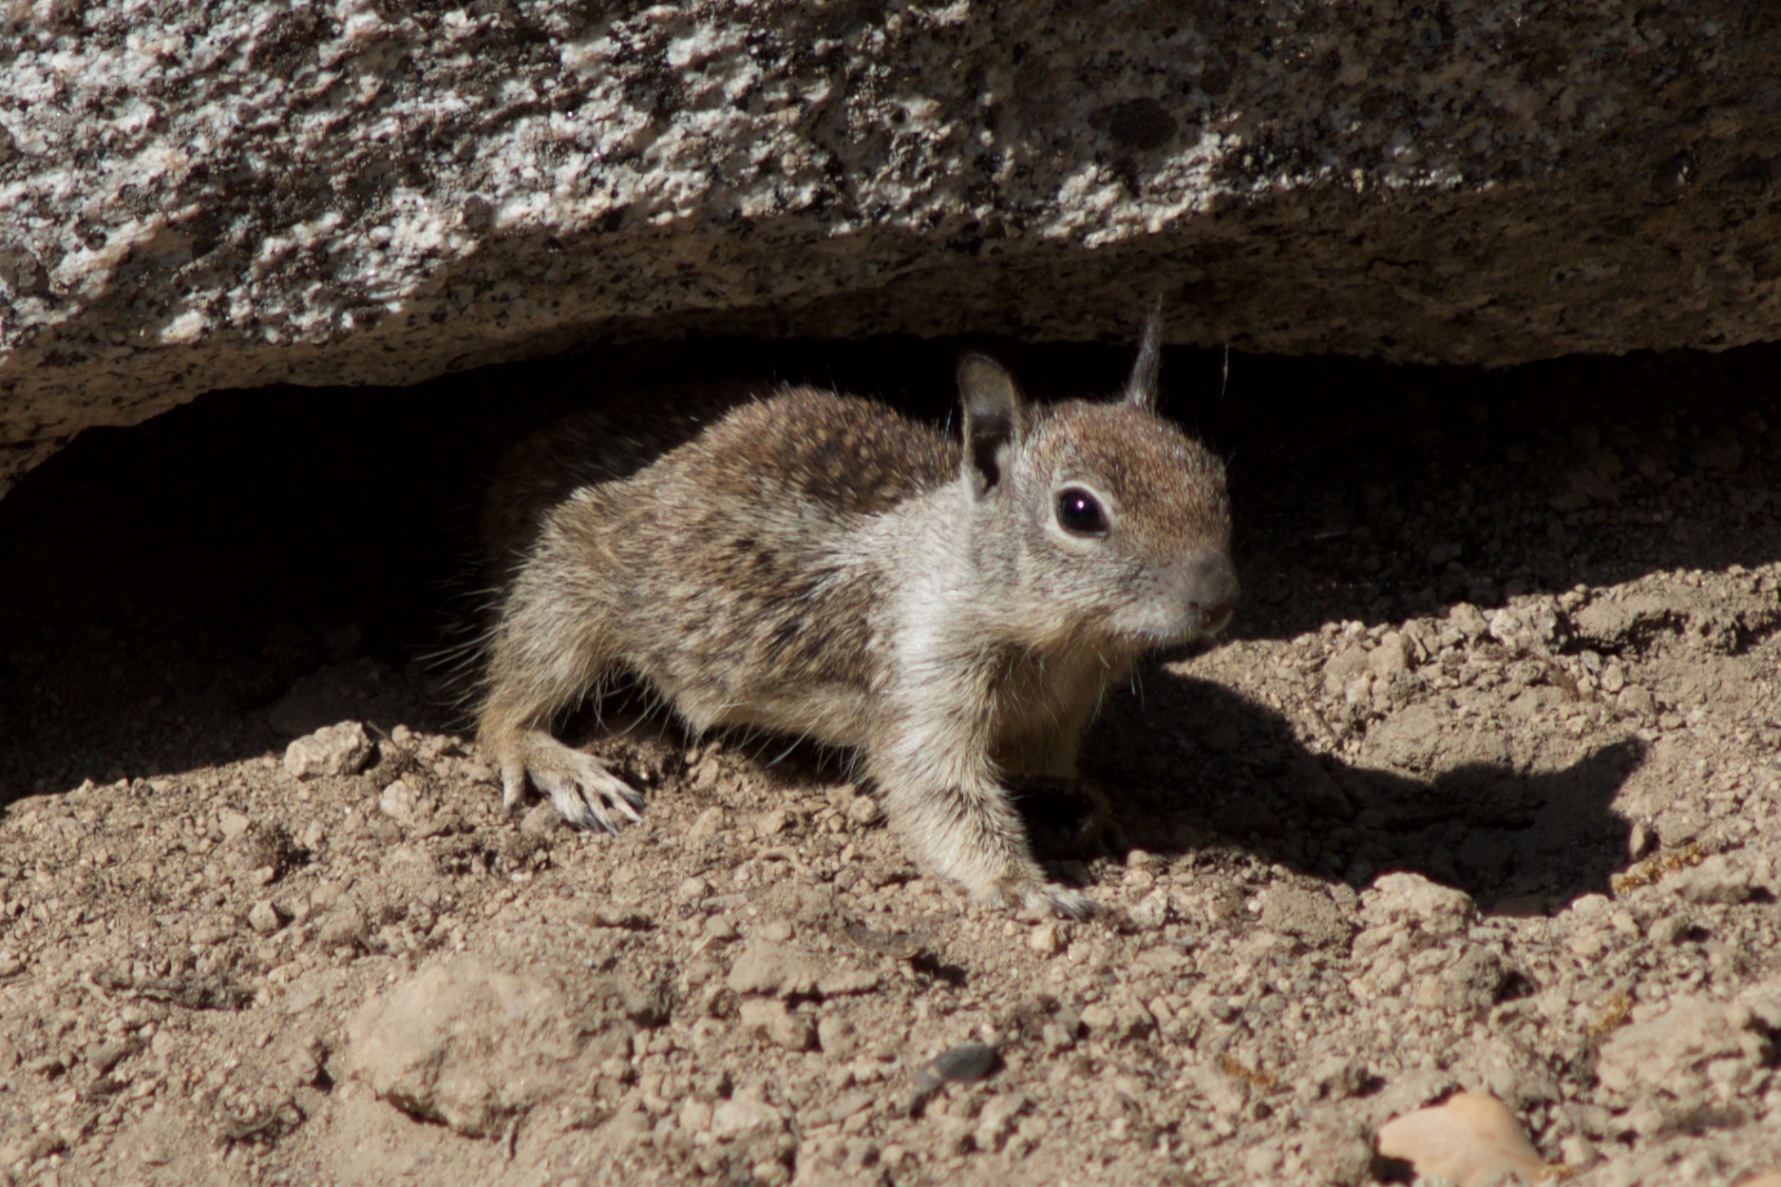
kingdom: Animalia
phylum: Chordata
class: Mammalia
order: Rodentia
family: Sciuridae
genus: Otospermophilus
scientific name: Otospermophilus beecheyi
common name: California ground squirrel
